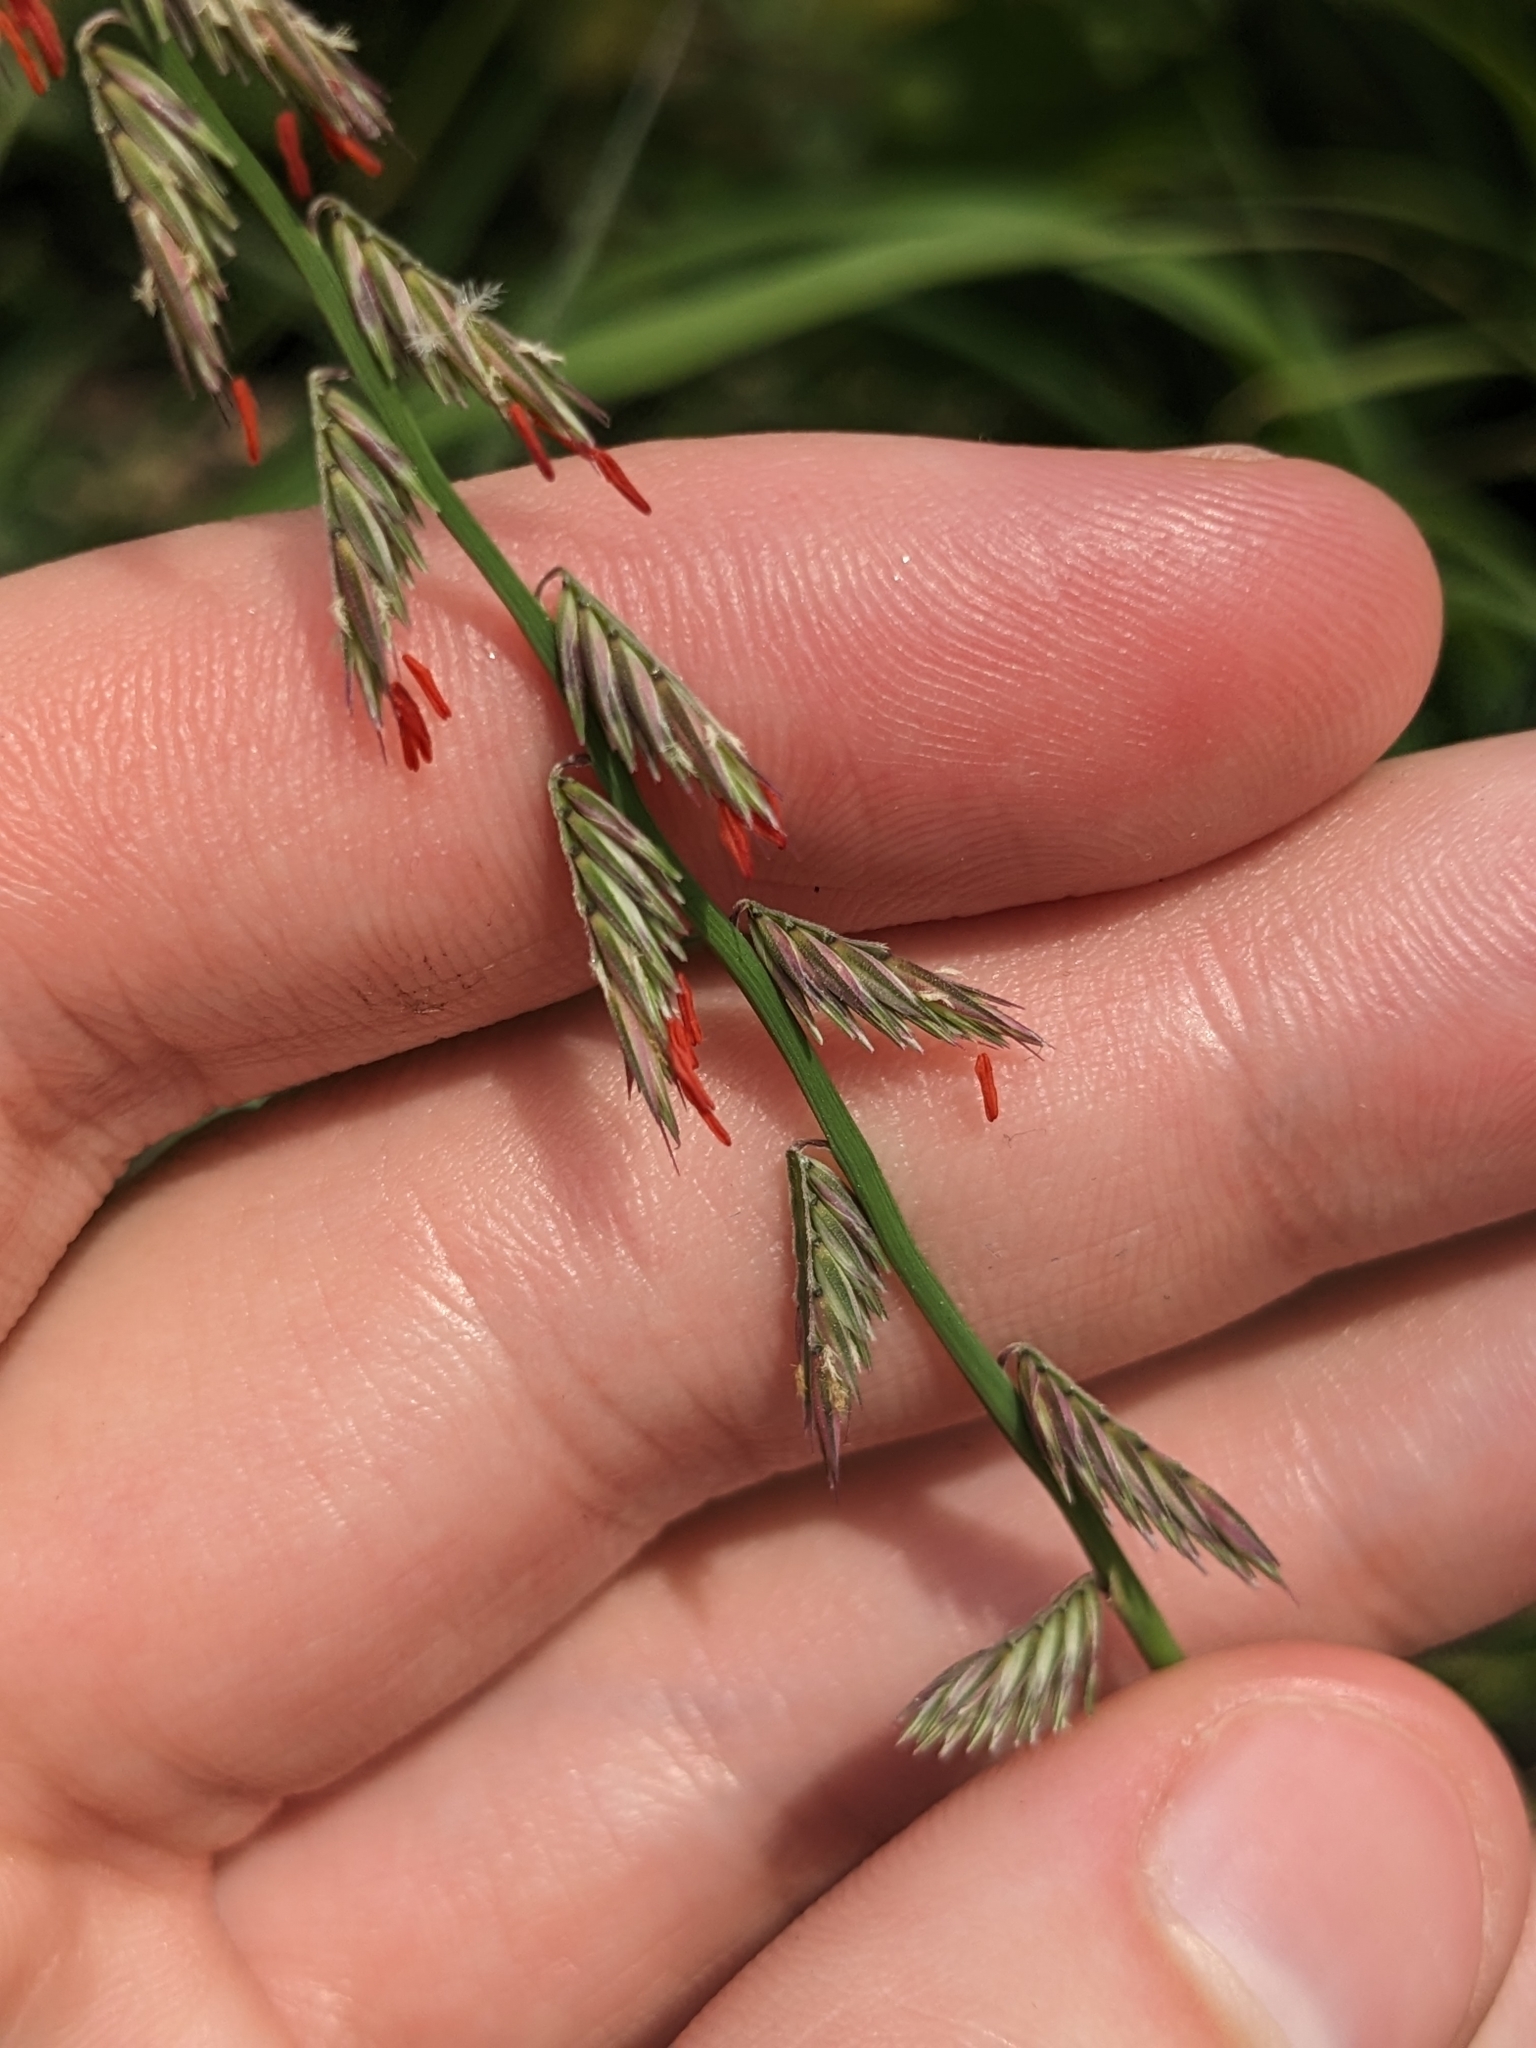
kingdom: Plantae
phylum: Tracheophyta
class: Liliopsida
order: Poales
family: Poaceae
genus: Bouteloua
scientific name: Bouteloua curtipendula
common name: Side-oats grama
